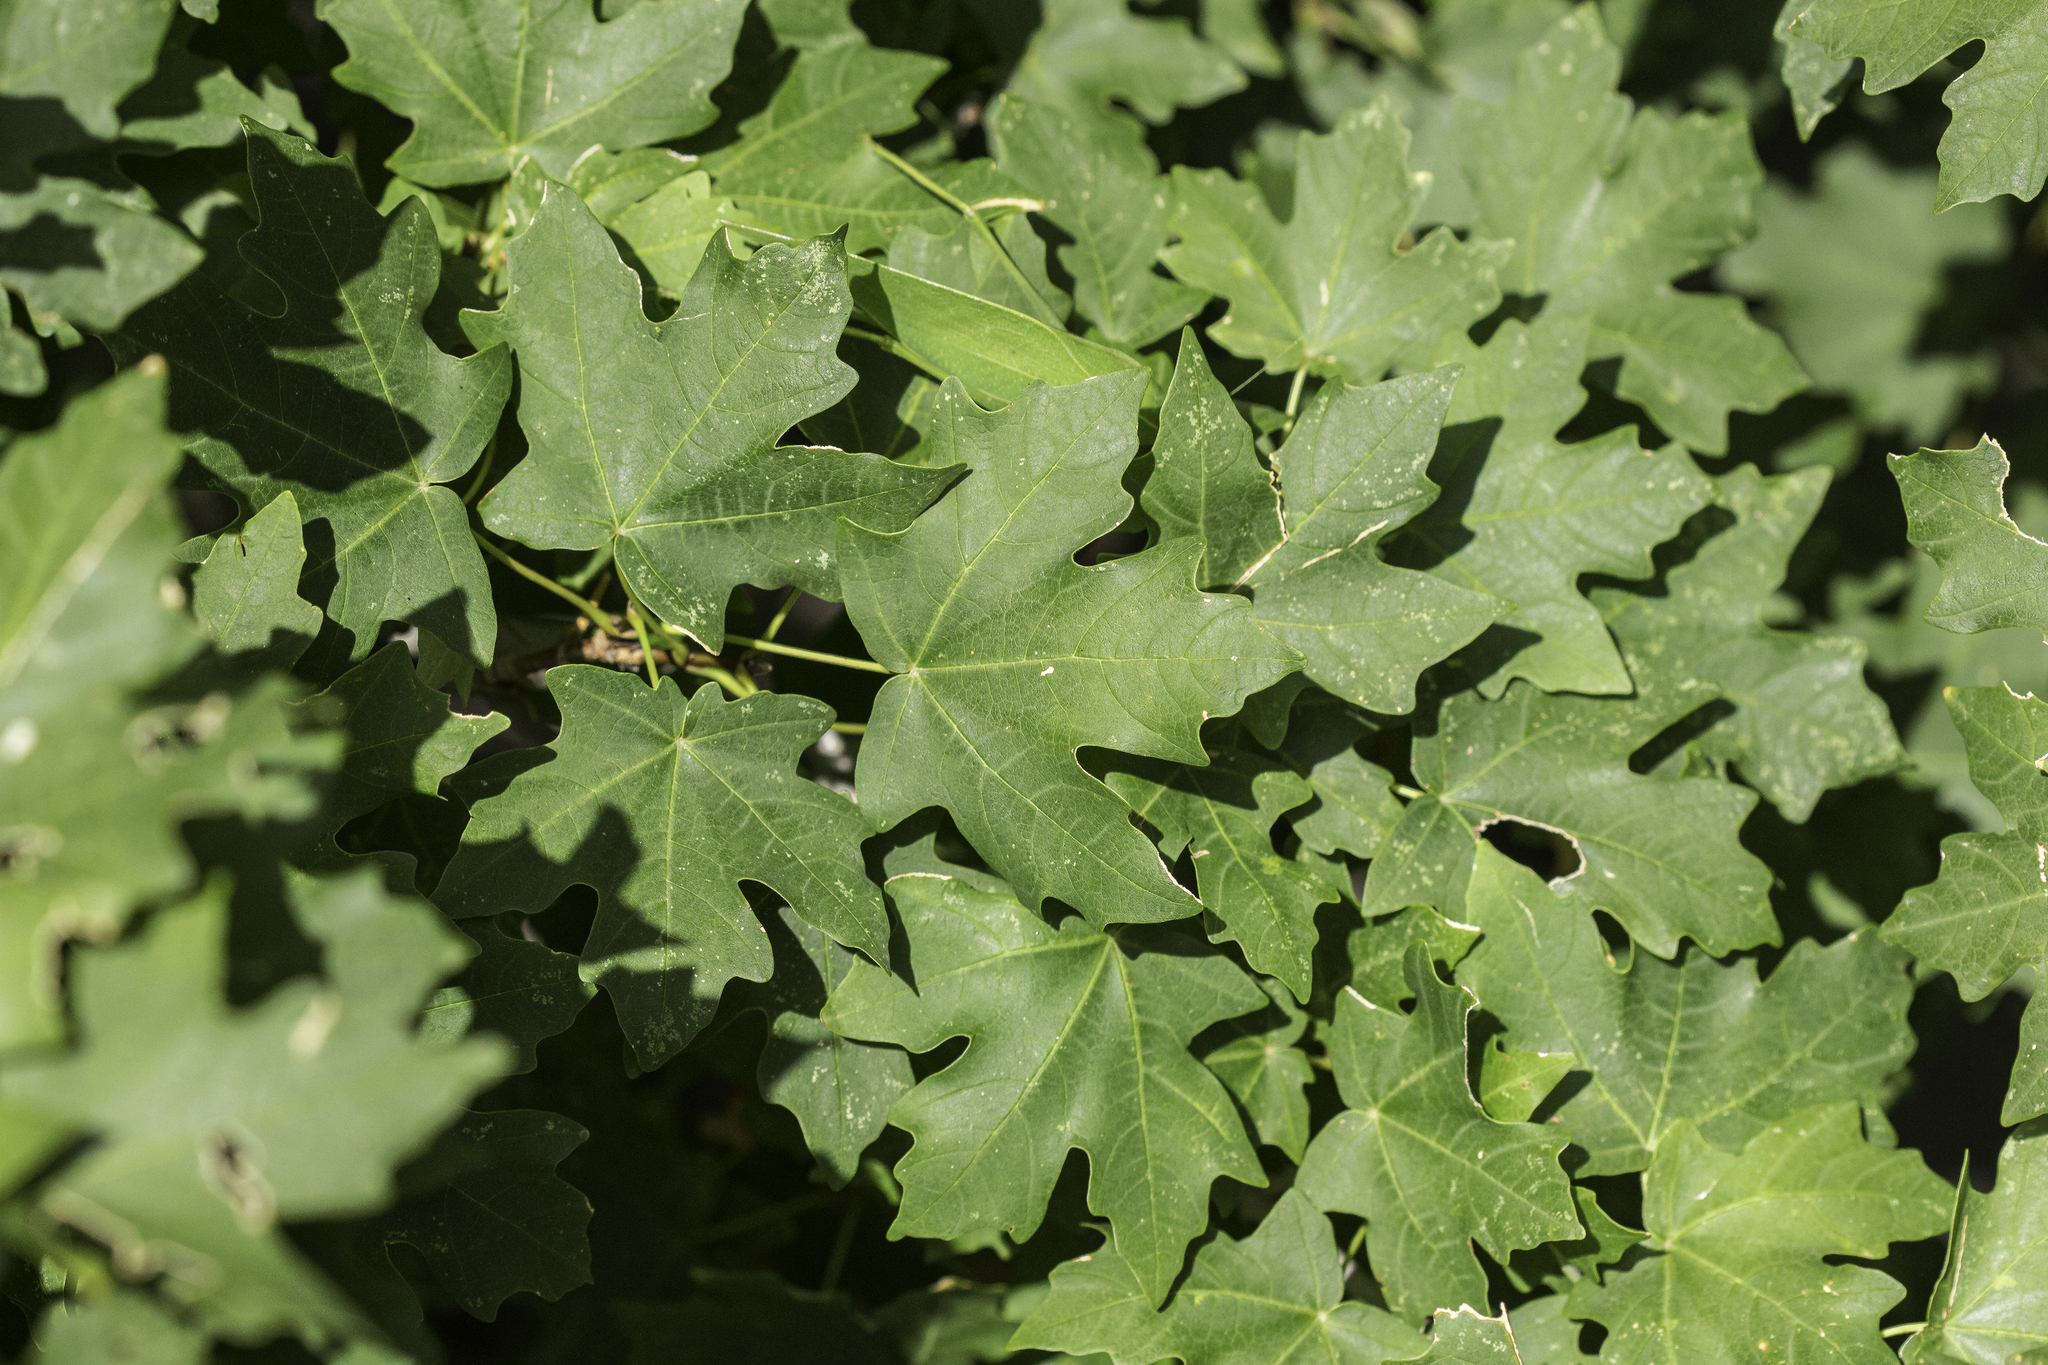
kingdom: Plantae
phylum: Tracheophyta
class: Magnoliopsida
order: Sapindales
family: Sapindaceae
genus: Acer
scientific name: Acer grandidentatum
